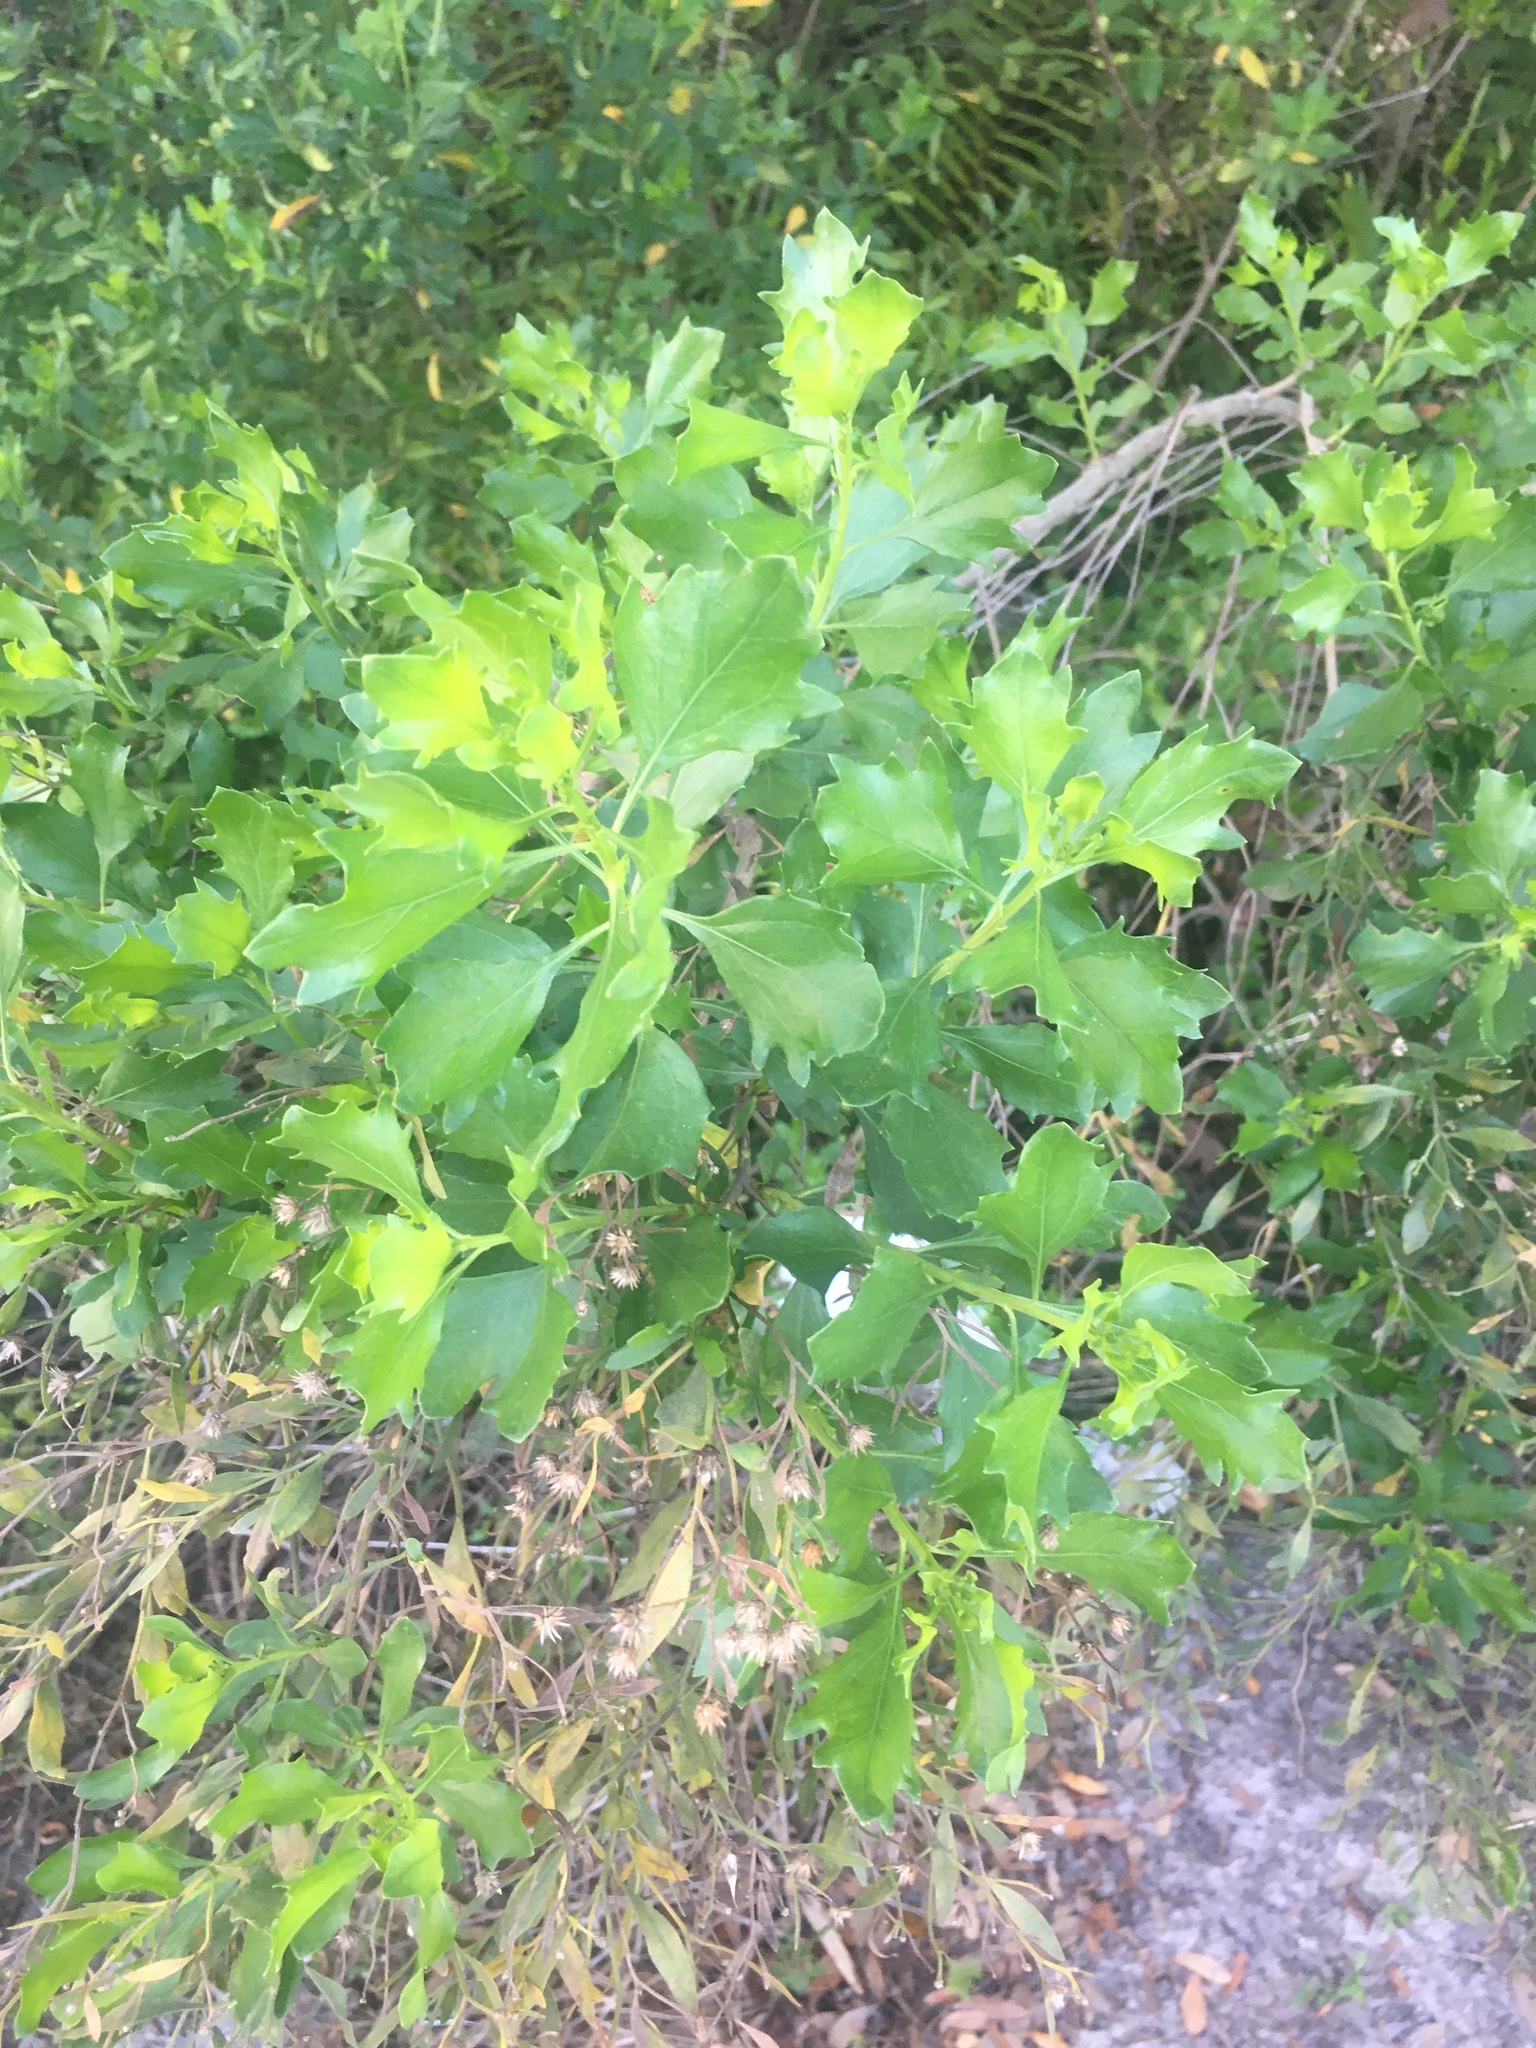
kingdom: Plantae
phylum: Tracheophyta
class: Magnoliopsida
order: Asterales
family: Asteraceae
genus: Baccharis
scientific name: Baccharis halimifolia
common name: Eastern baccharis
